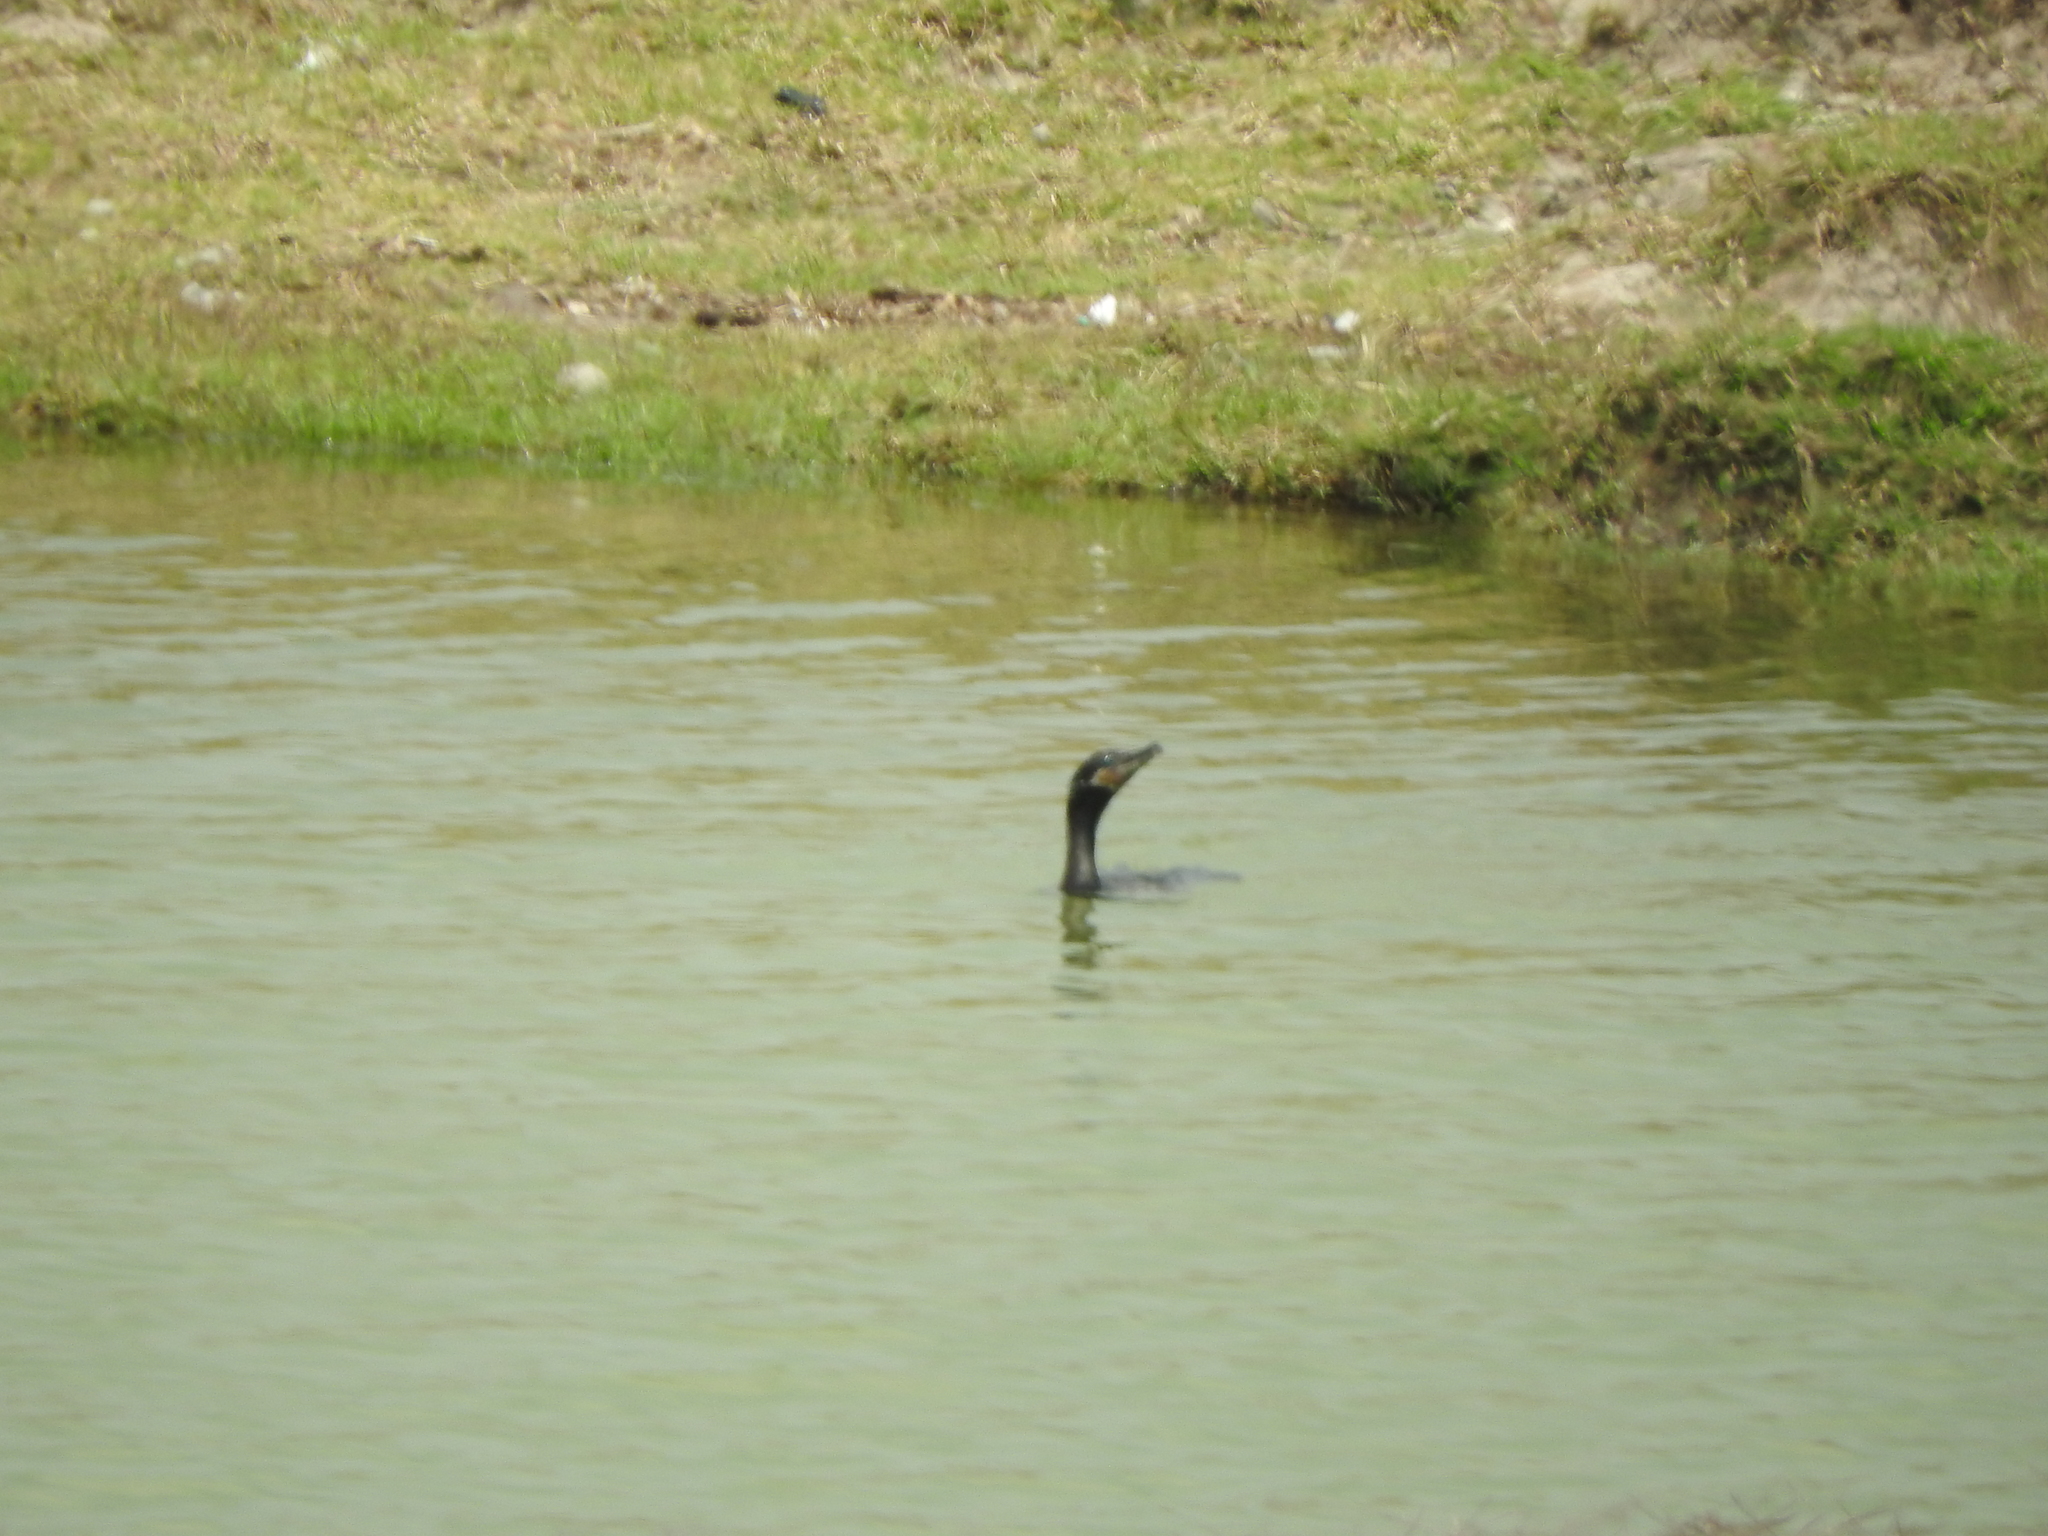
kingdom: Animalia
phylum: Chordata
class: Aves
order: Suliformes
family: Phalacrocoracidae
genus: Phalacrocorax
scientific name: Phalacrocorax brasilianus
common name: Neotropic cormorant
